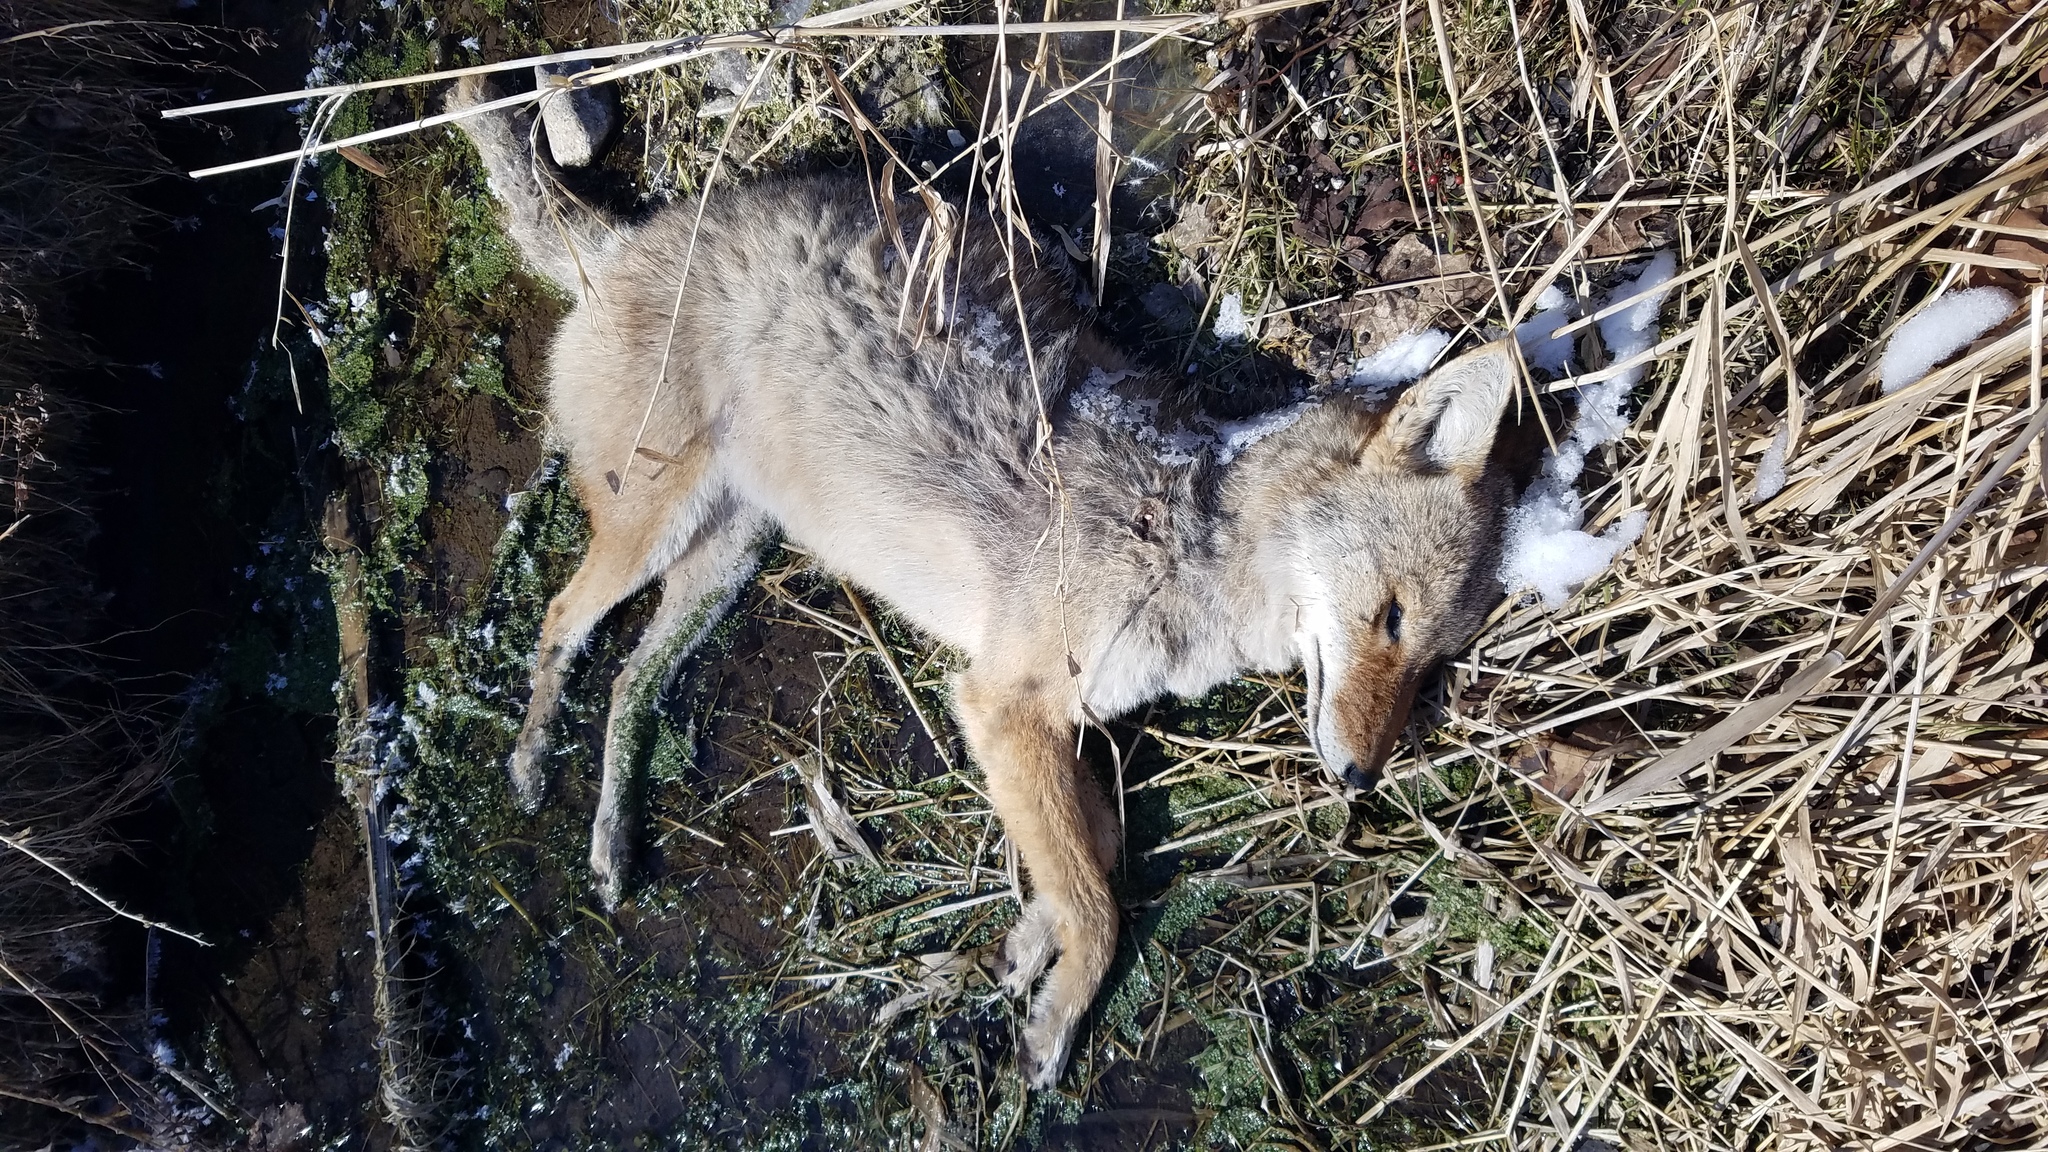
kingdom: Animalia
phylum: Chordata
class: Mammalia
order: Carnivora
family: Canidae
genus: Canis
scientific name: Canis latrans
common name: Coyote
